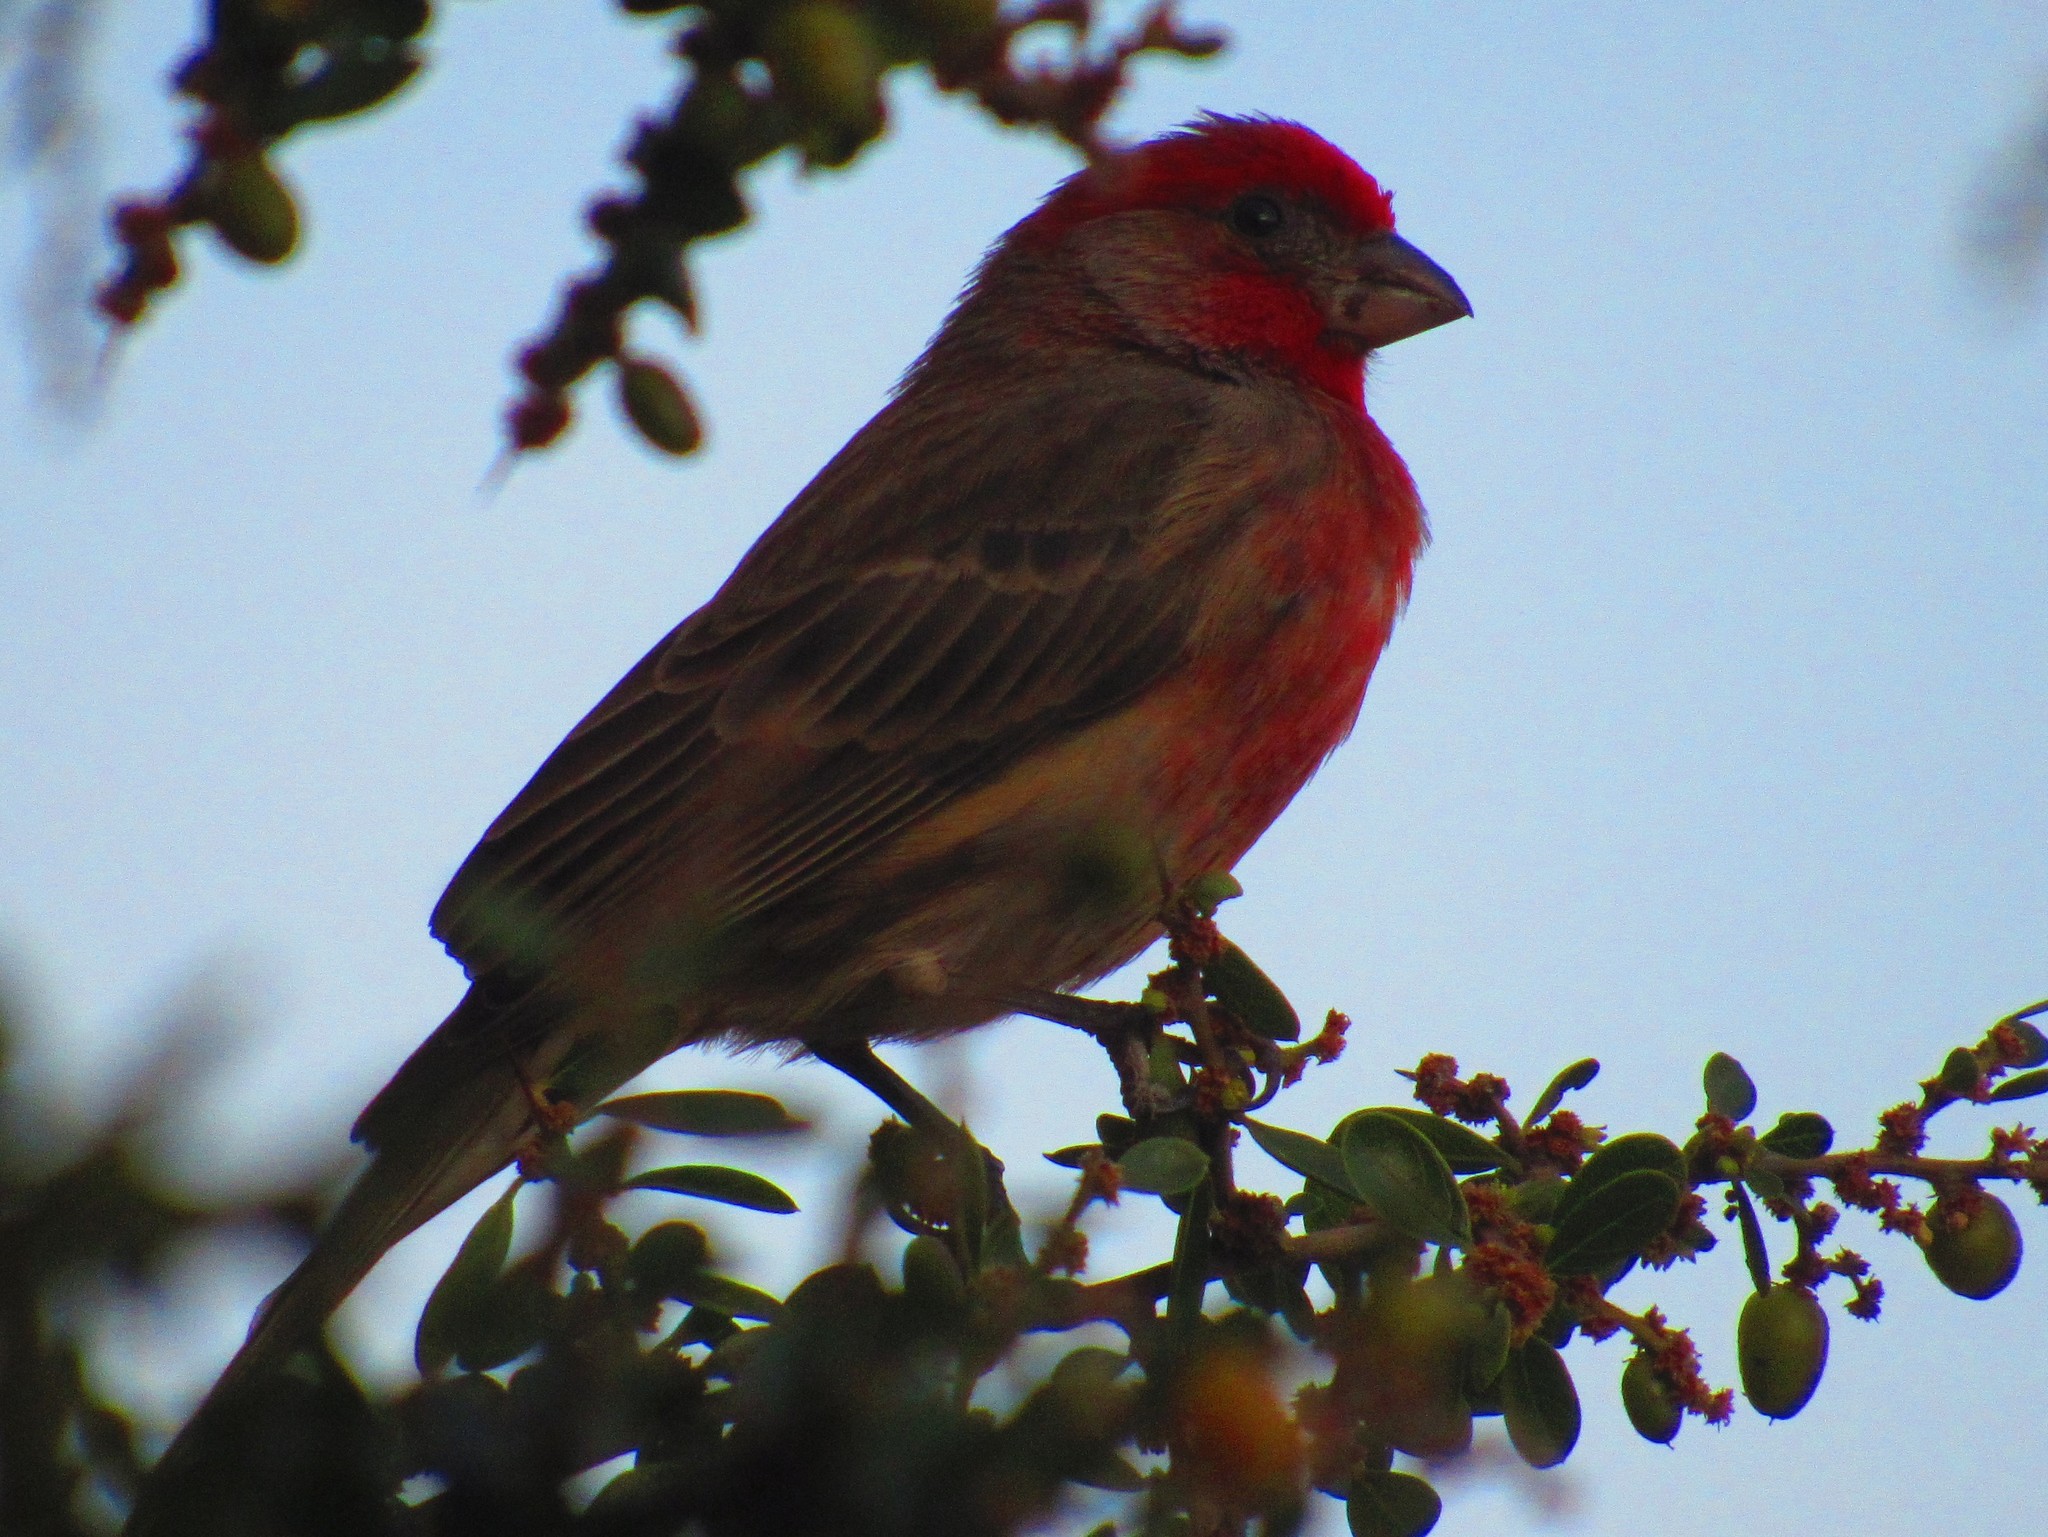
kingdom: Animalia
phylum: Chordata
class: Aves
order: Passeriformes
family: Fringillidae
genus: Haemorhous
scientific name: Haemorhous mexicanus
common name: House finch
